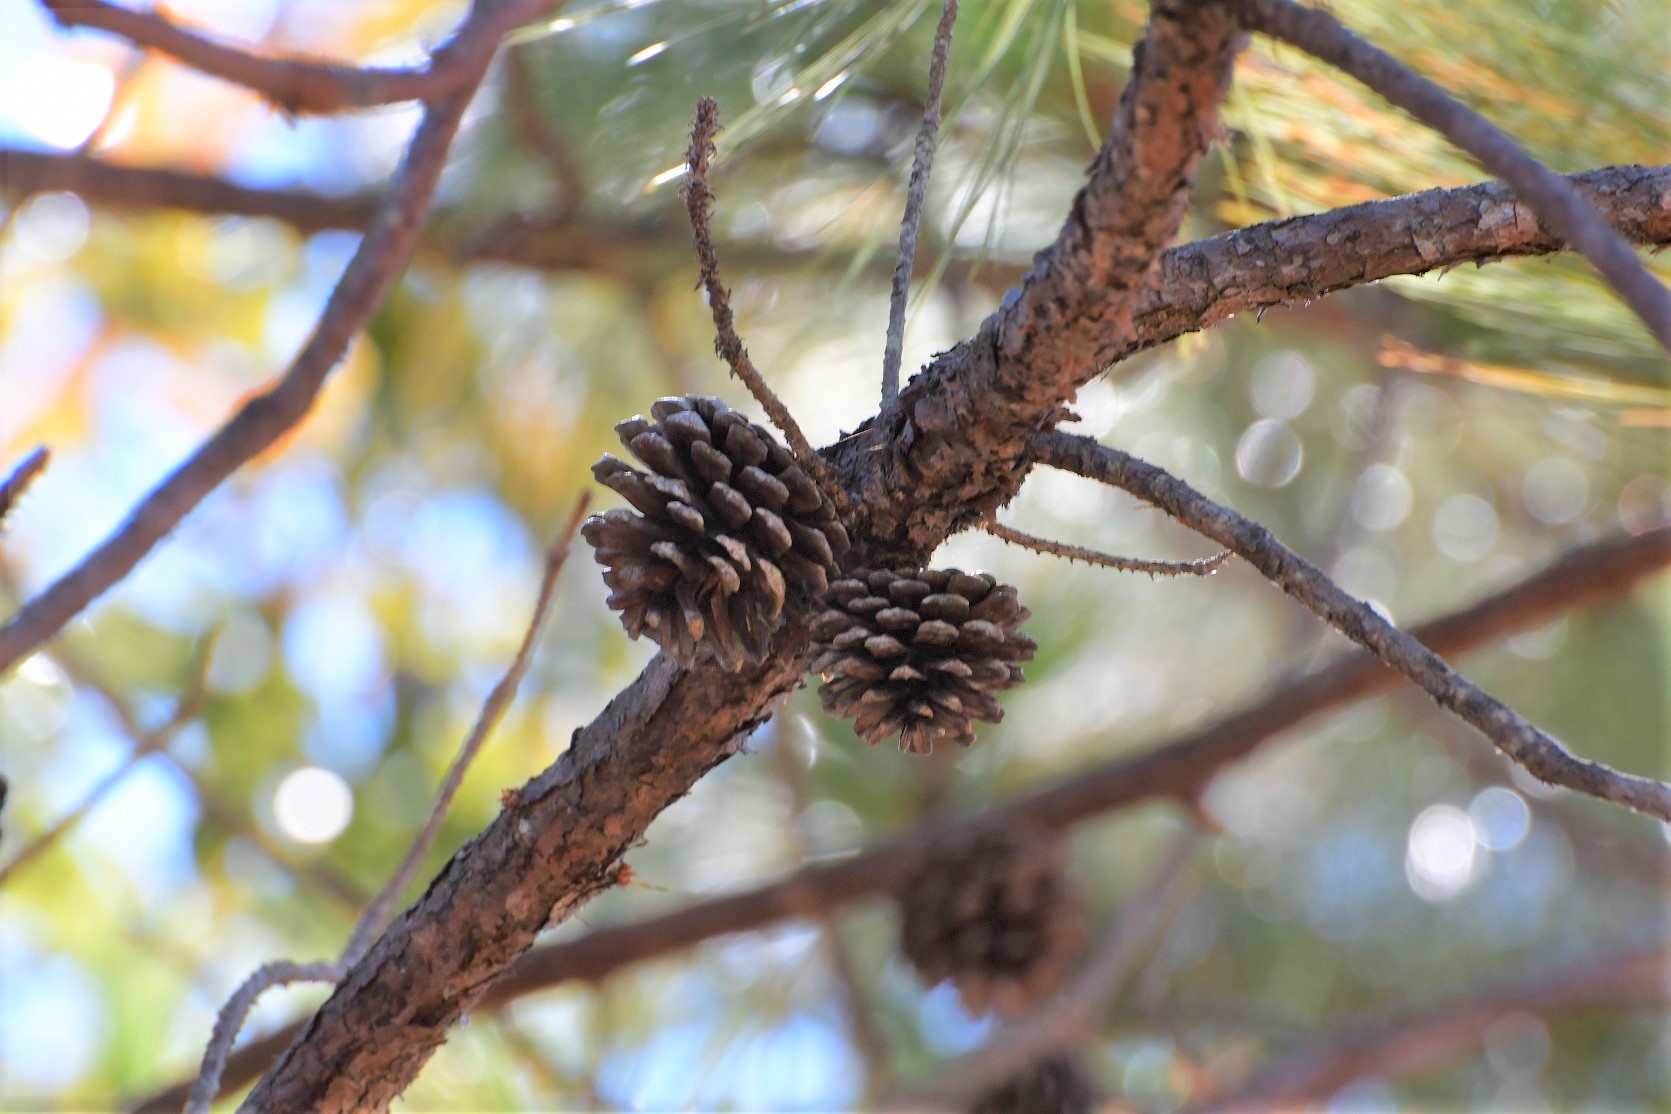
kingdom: Plantae
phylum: Tracheophyta
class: Pinopsida
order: Pinales
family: Pinaceae
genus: Pinus
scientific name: Pinus oocarpa
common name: Egg-cone pine
